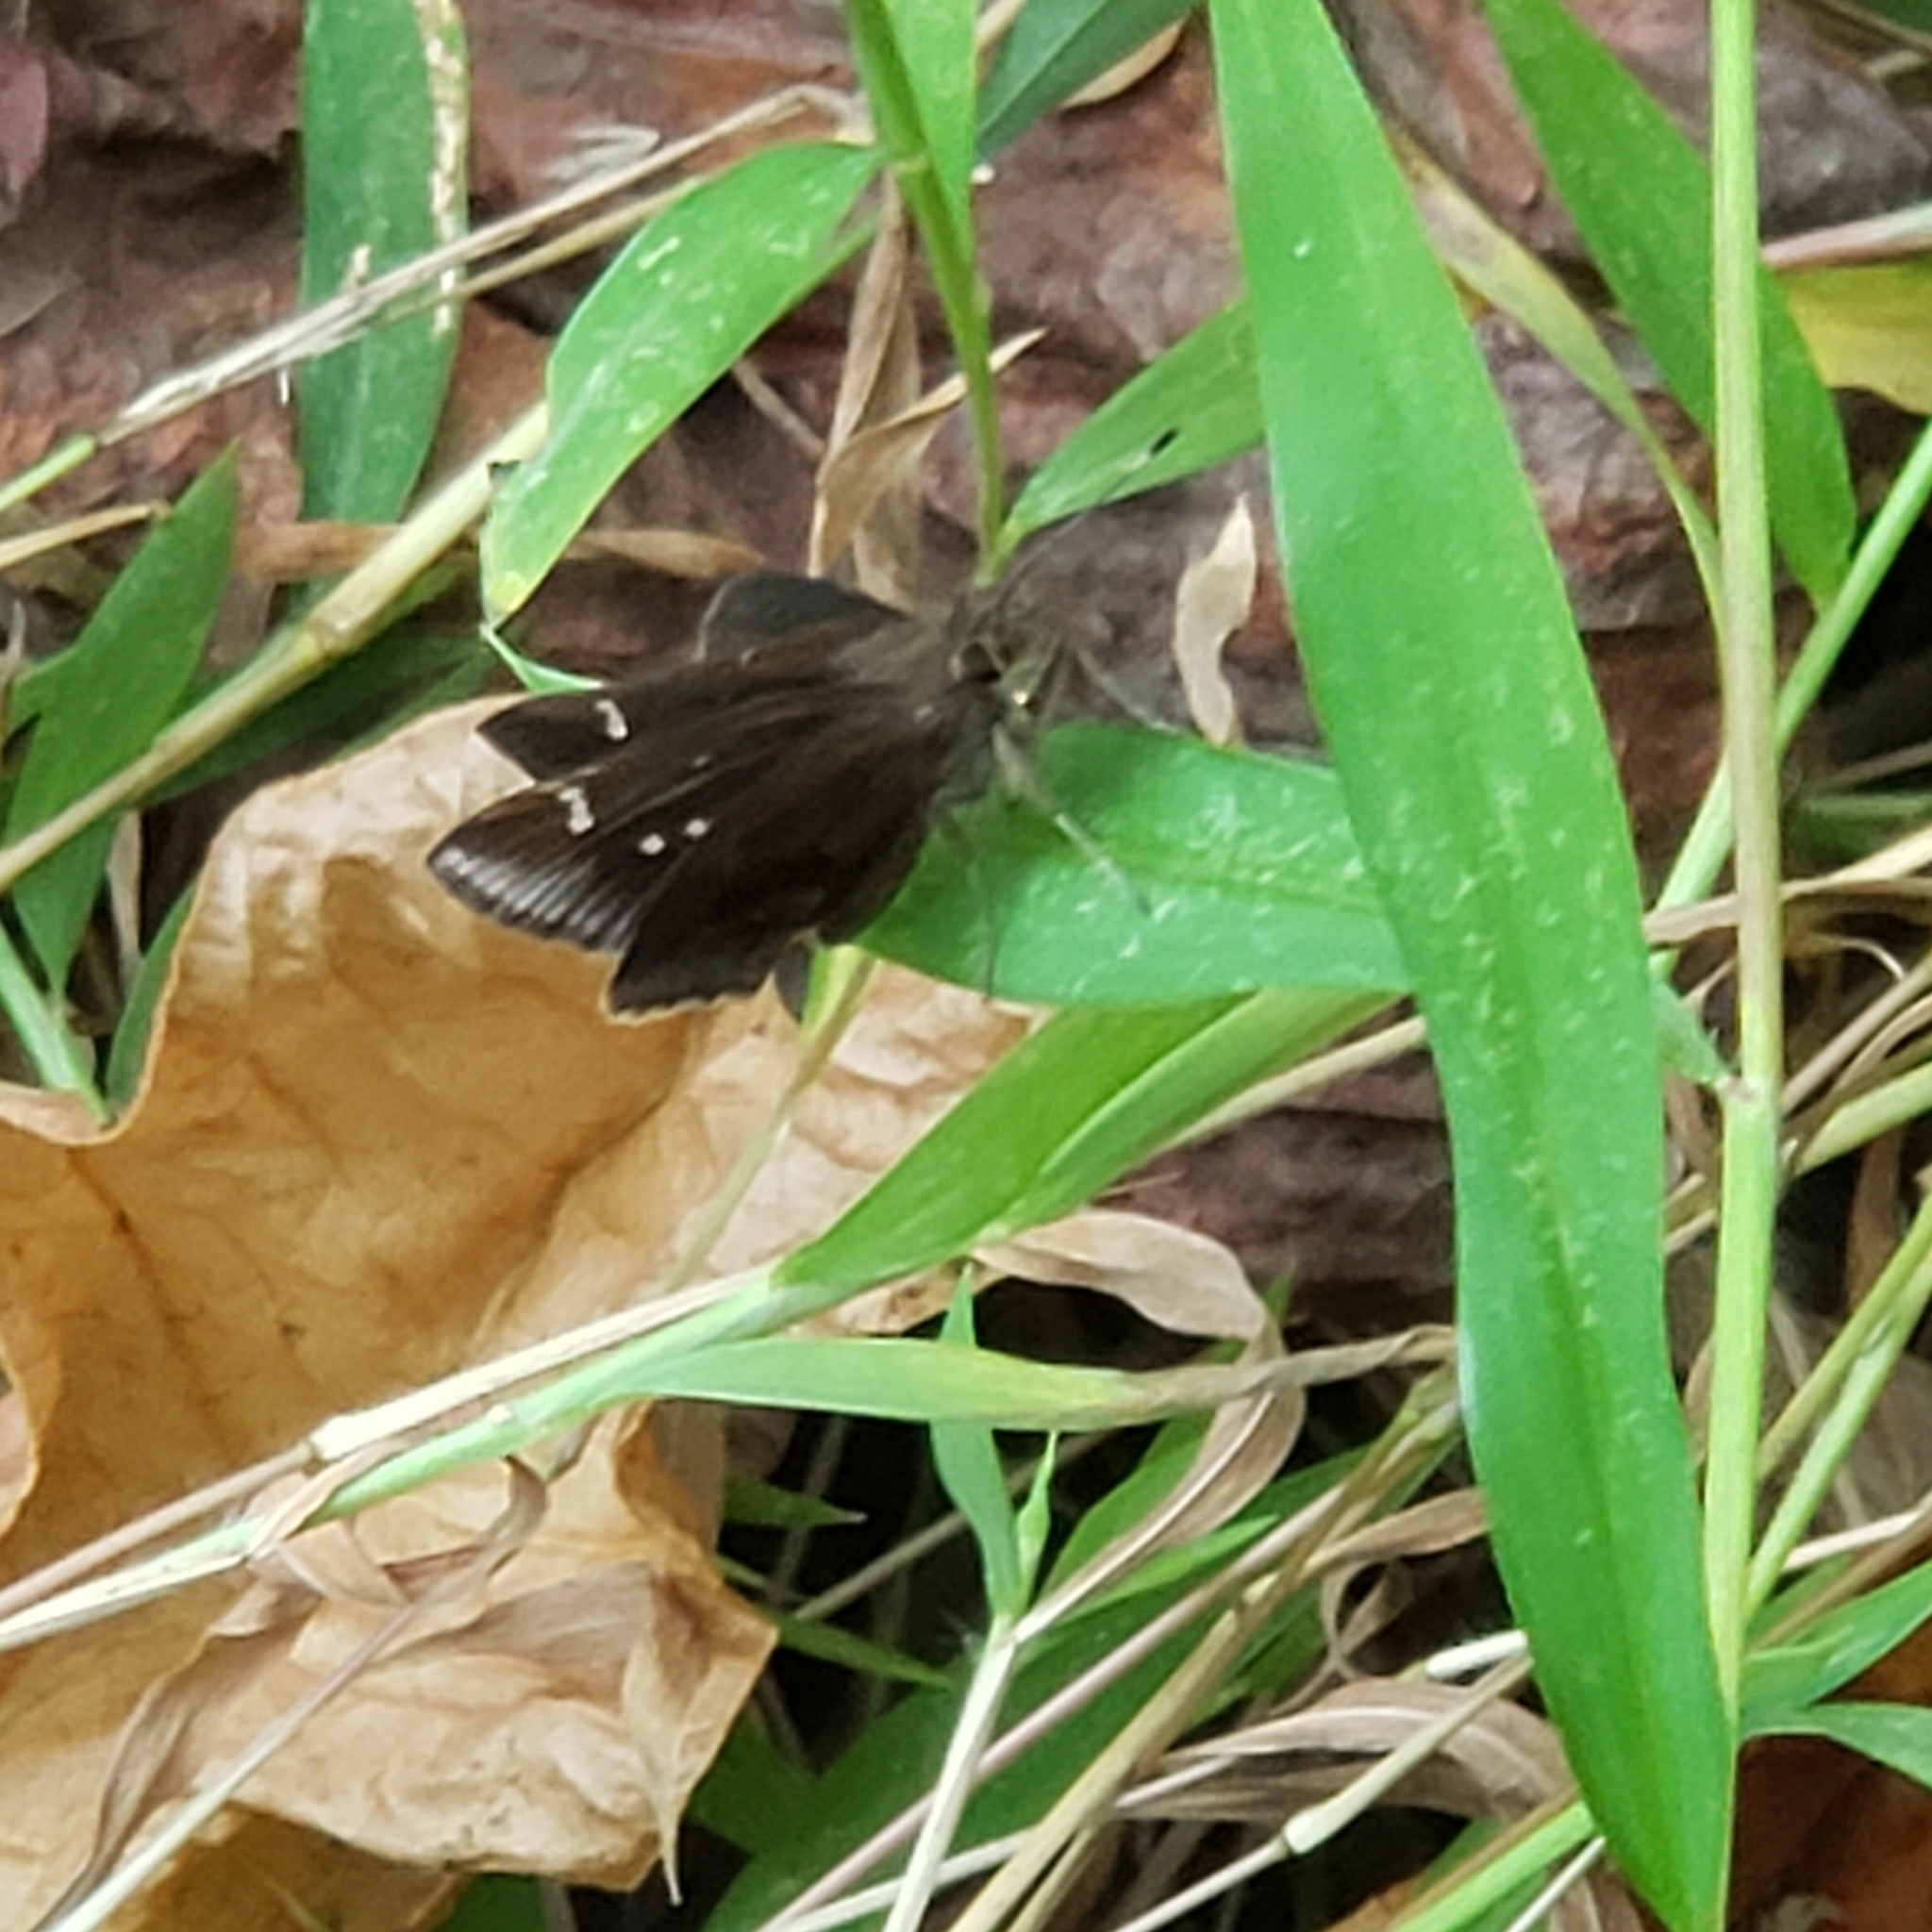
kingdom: Animalia
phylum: Arthropoda
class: Insecta
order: Lepidoptera
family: Hesperiidae
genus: Lerema
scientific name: Lerema accius
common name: Clouded skipper
